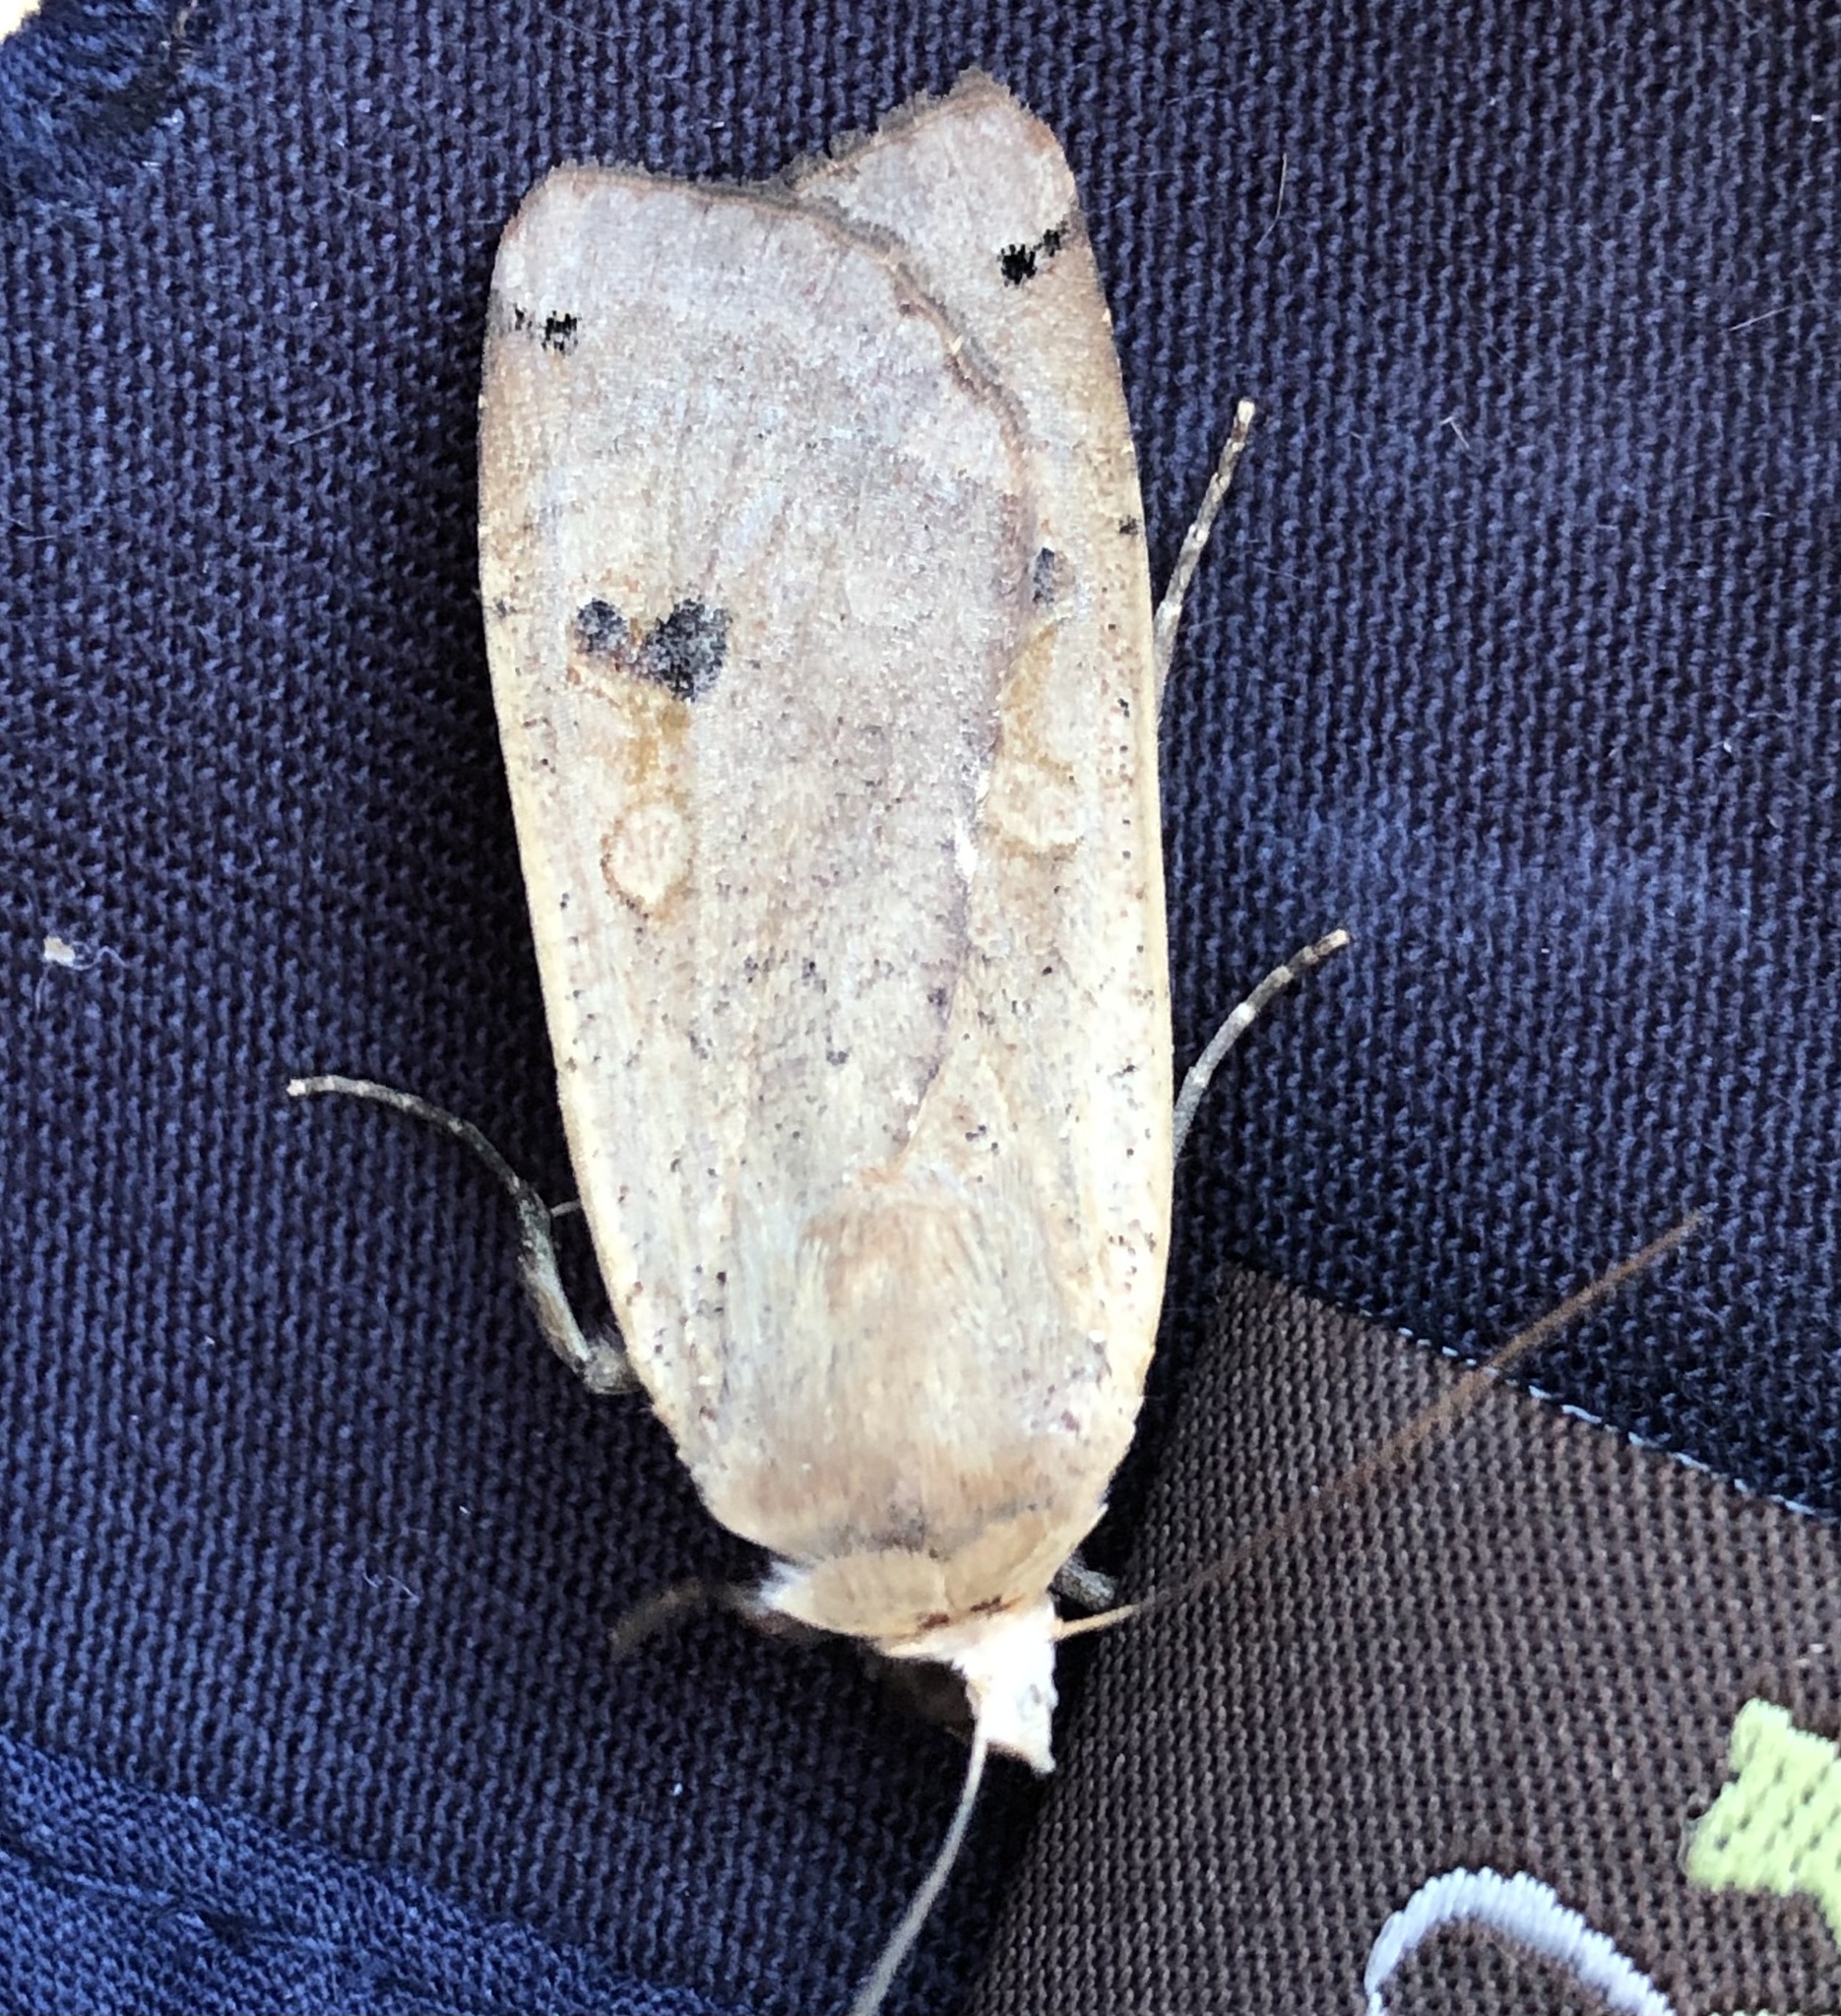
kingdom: Animalia
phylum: Arthropoda
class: Insecta
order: Lepidoptera
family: Noctuidae
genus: Noctua
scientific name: Noctua pronuba
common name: Large yellow underwing
